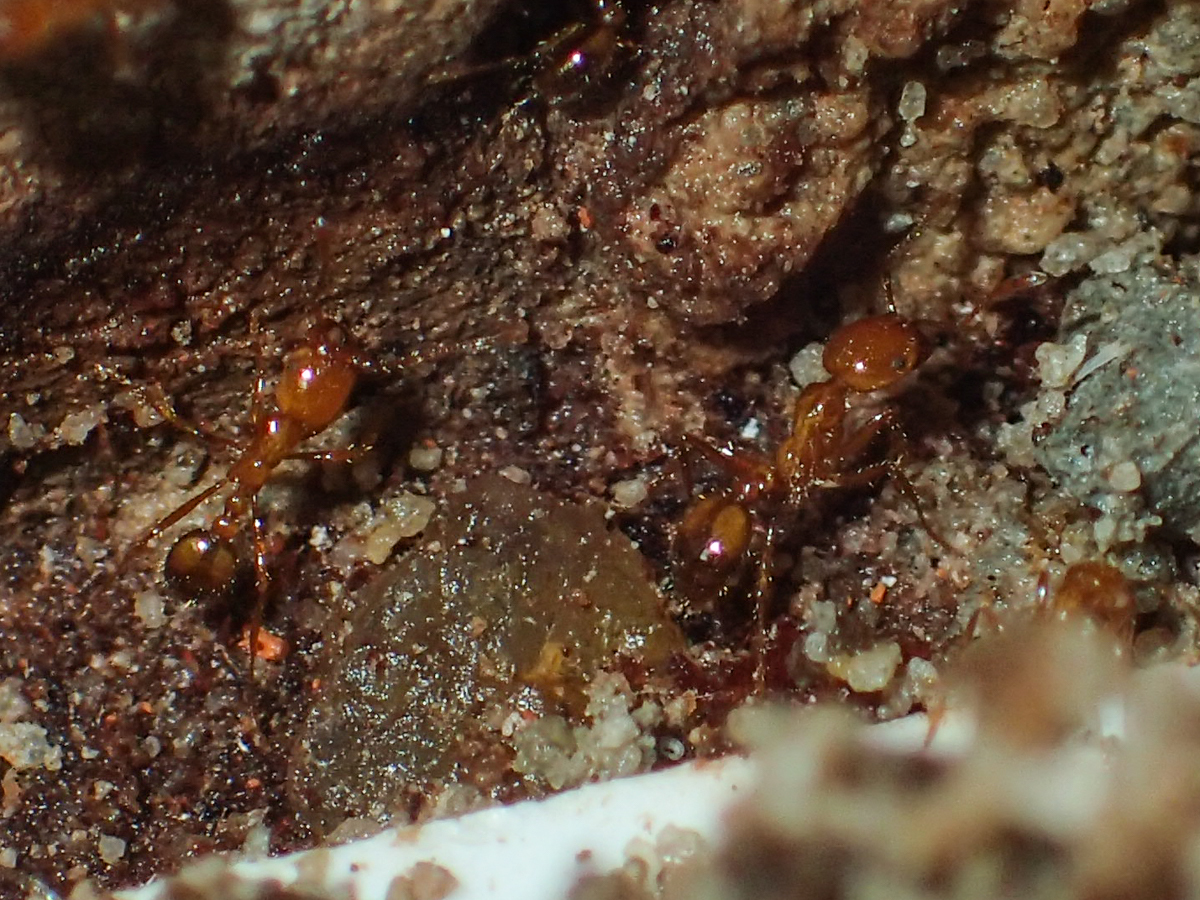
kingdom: Animalia
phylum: Arthropoda
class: Insecta
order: Hymenoptera
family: Formicidae
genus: Solenopsis
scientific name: Solenopsis geminata
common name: Tropical fire ant
